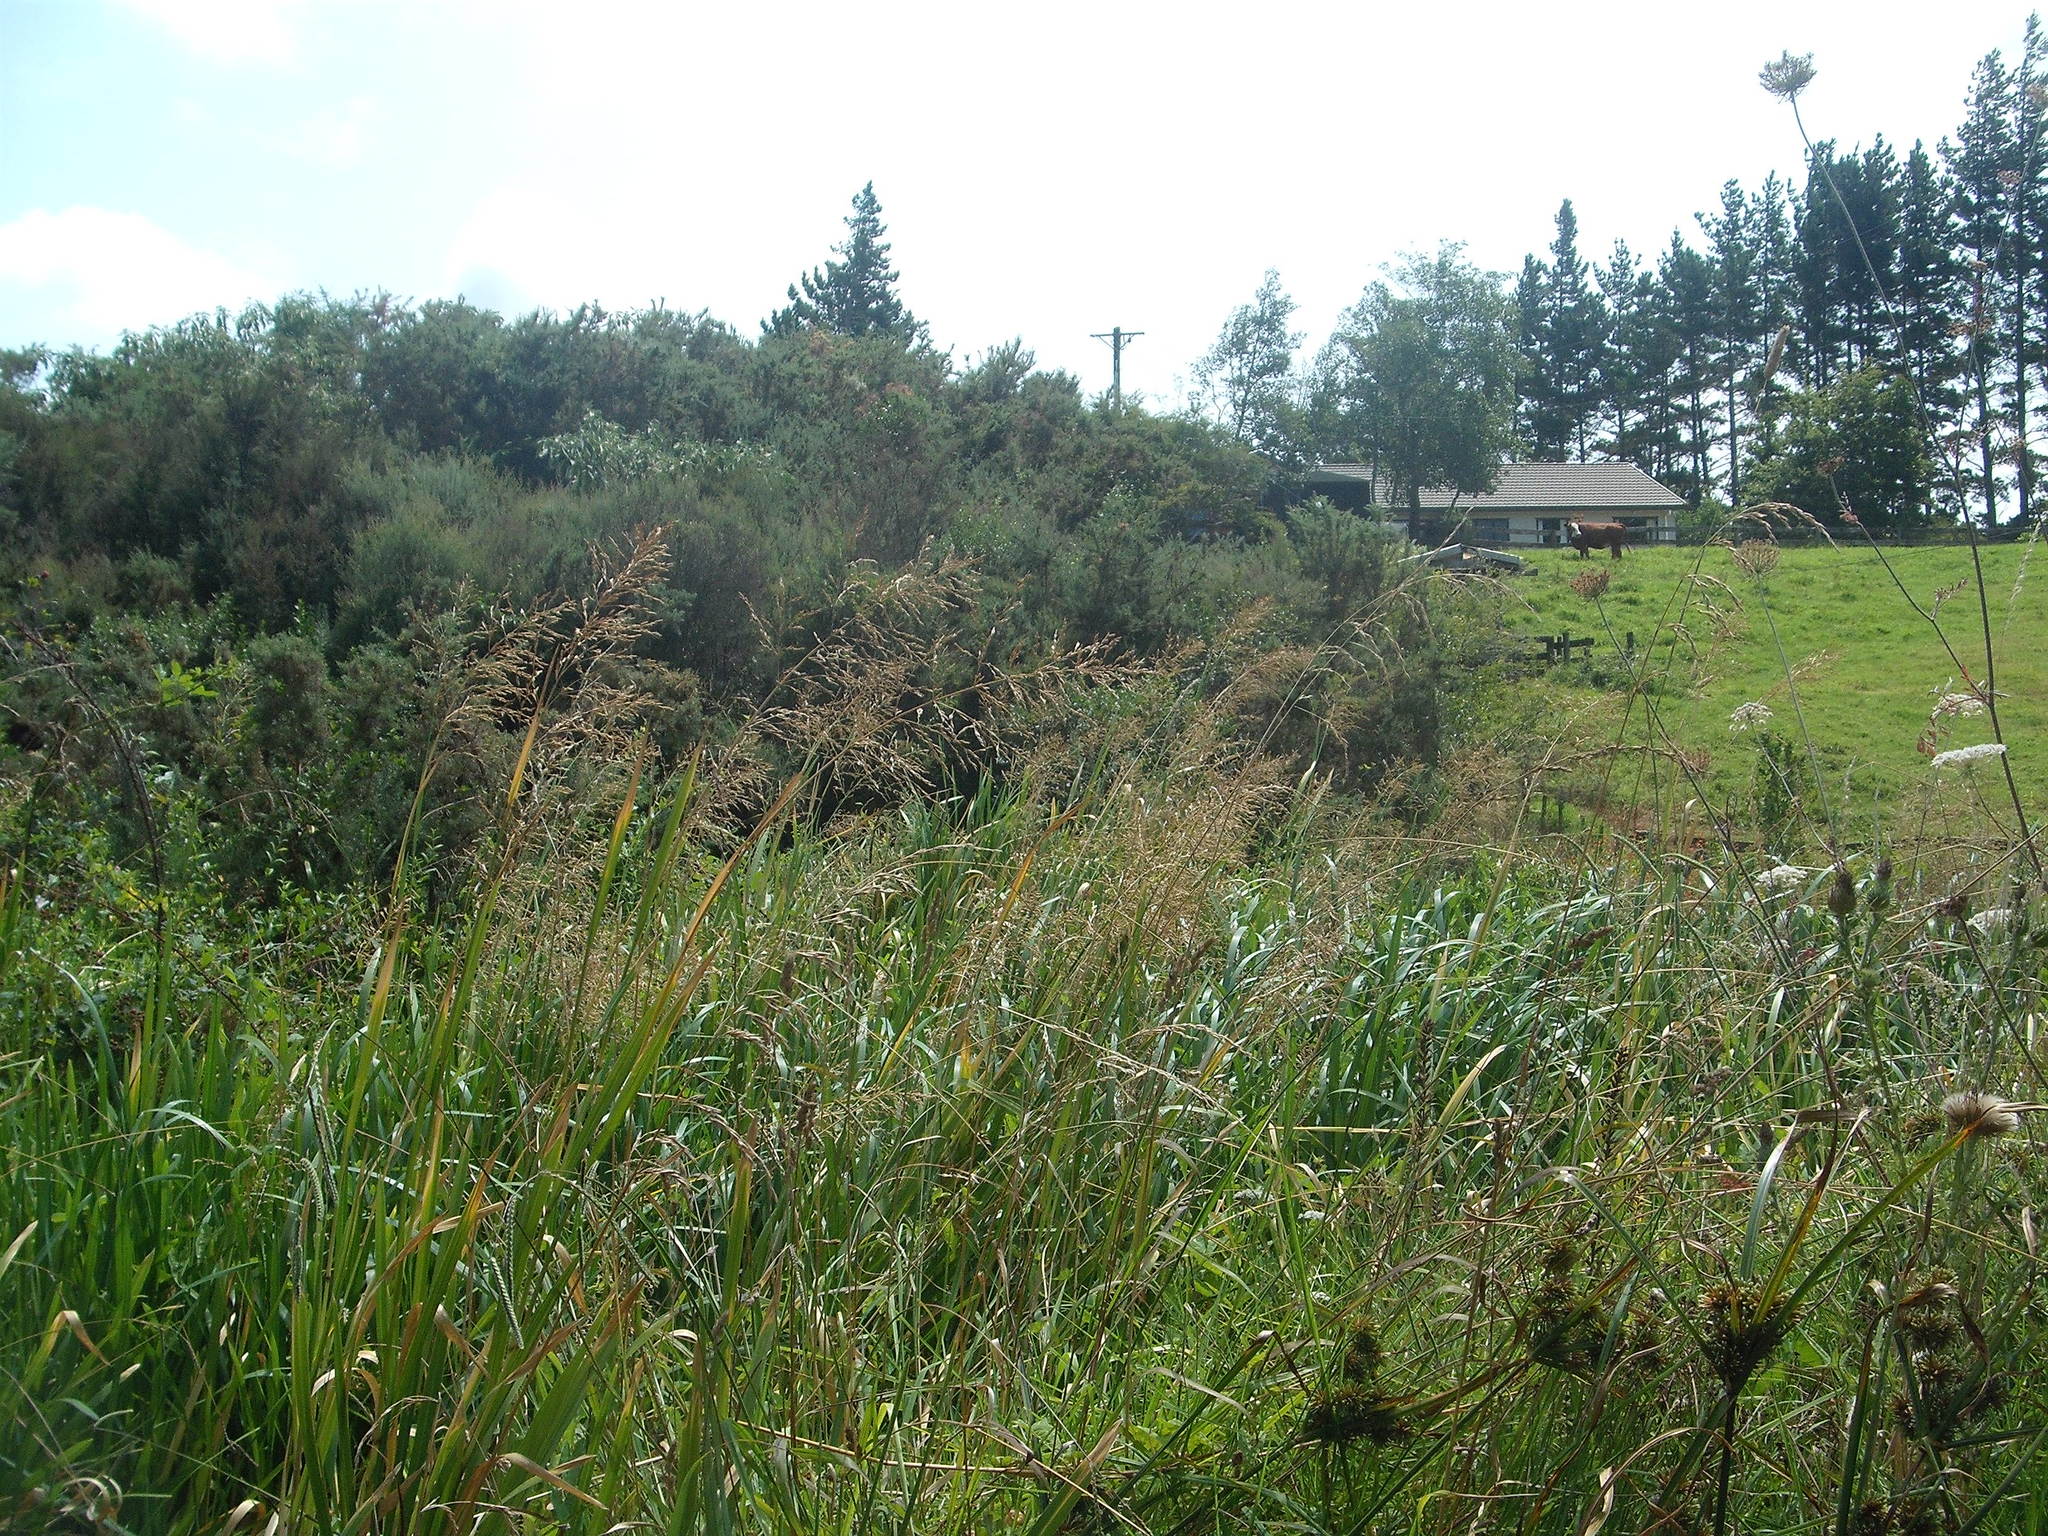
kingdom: Plantae
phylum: Tracheophyta
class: Liliopsida
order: Poales
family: Poaceae
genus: Oloptum
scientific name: Oloptum miliaceum
